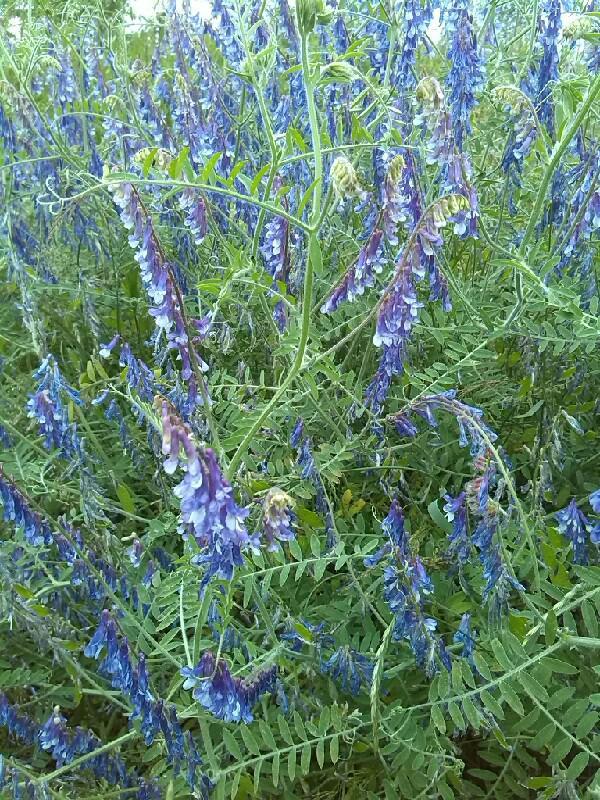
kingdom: Plantae
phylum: Tracheophyta
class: Magnoliopsida
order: Fabales
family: Fabaceae
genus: Vicia
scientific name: Vicia villosa
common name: Fodder vetch
